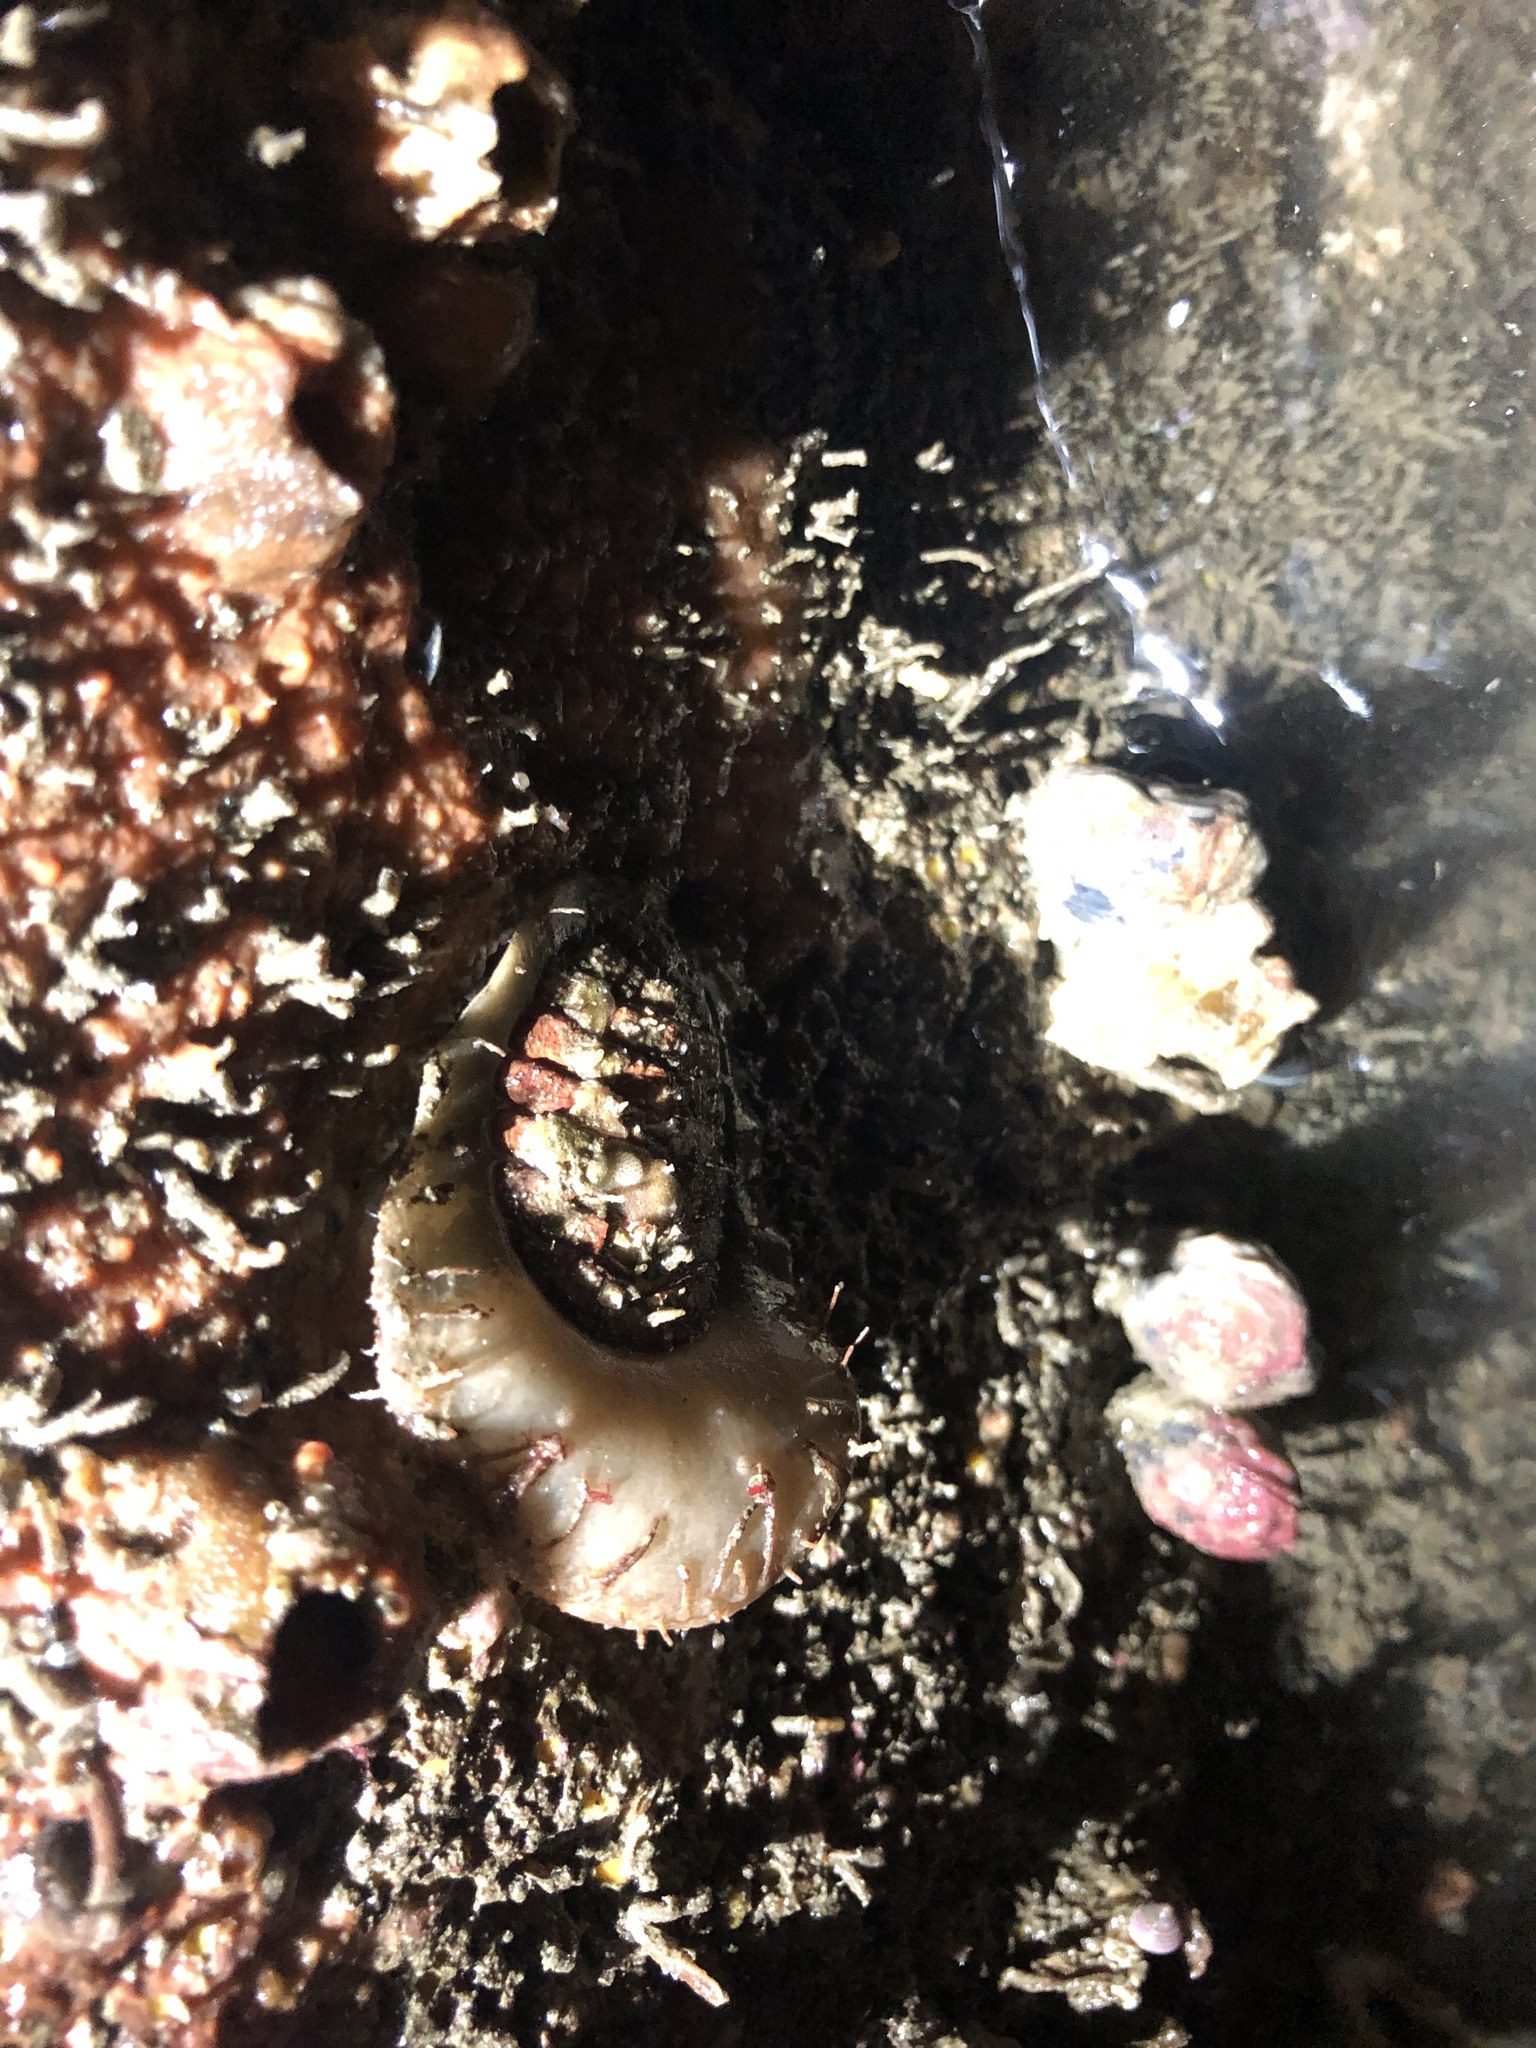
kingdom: Animalia
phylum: Mollusca
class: Polyplacophora
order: Chitonida
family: Mopaliidae
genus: Placiphorella
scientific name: Placiphorella rufa
